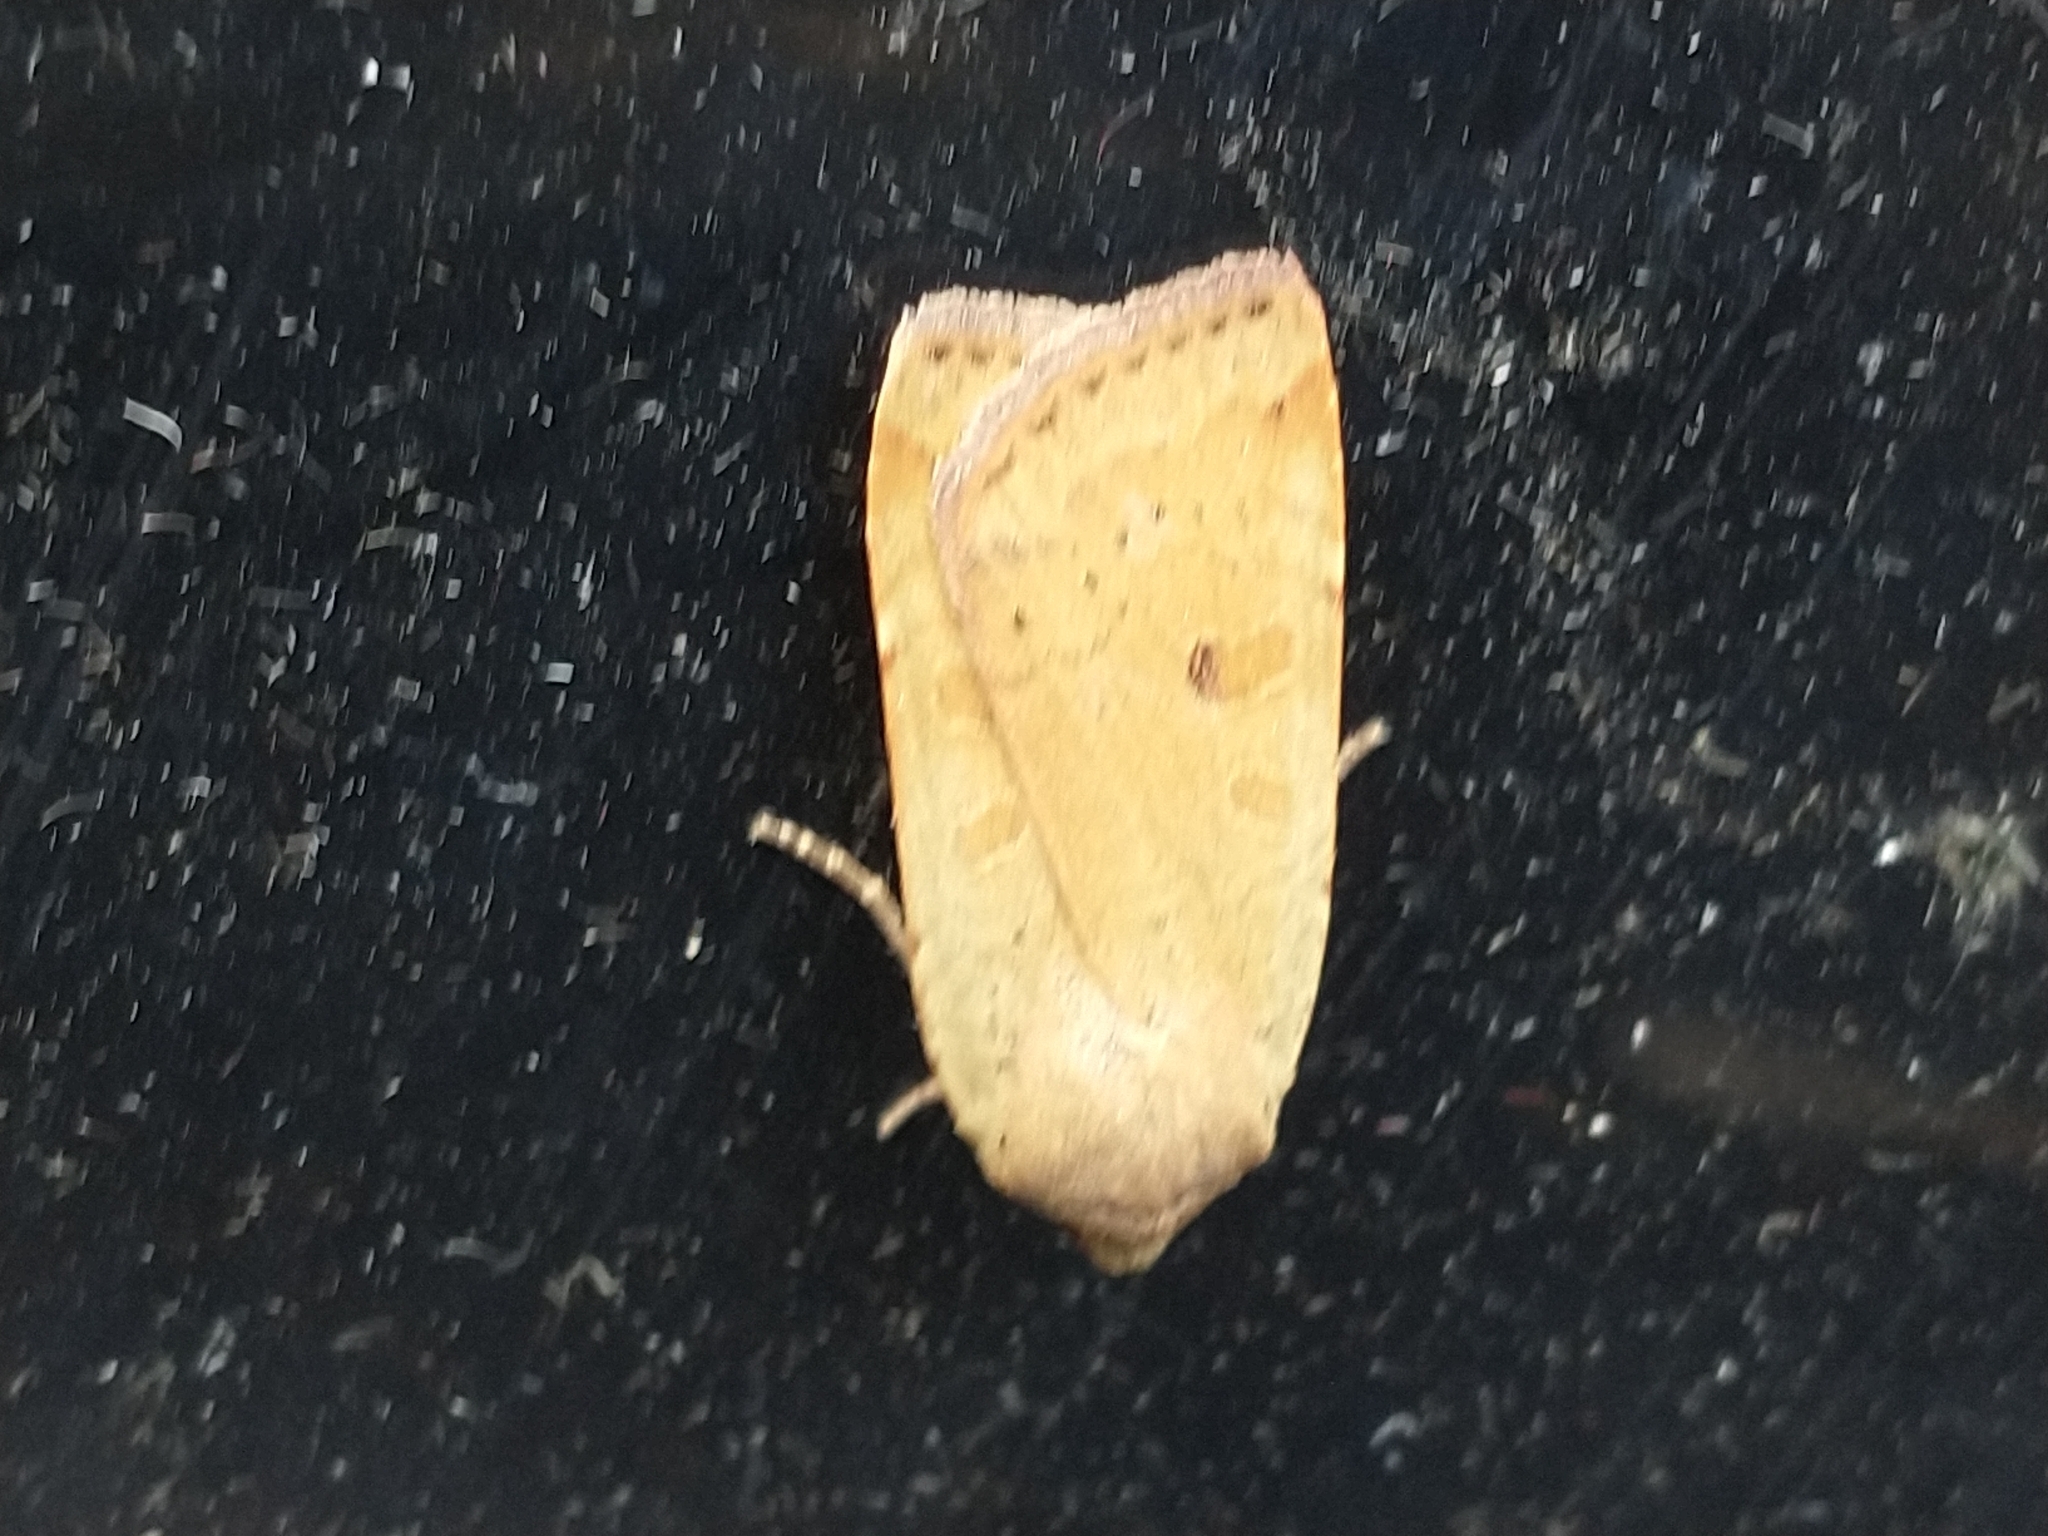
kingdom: Animalia
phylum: Arthropoda
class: Insecta
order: Lepidoptera
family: Noctuidae
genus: Noctua
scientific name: Noctua comes
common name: Lesser yellow underwing
